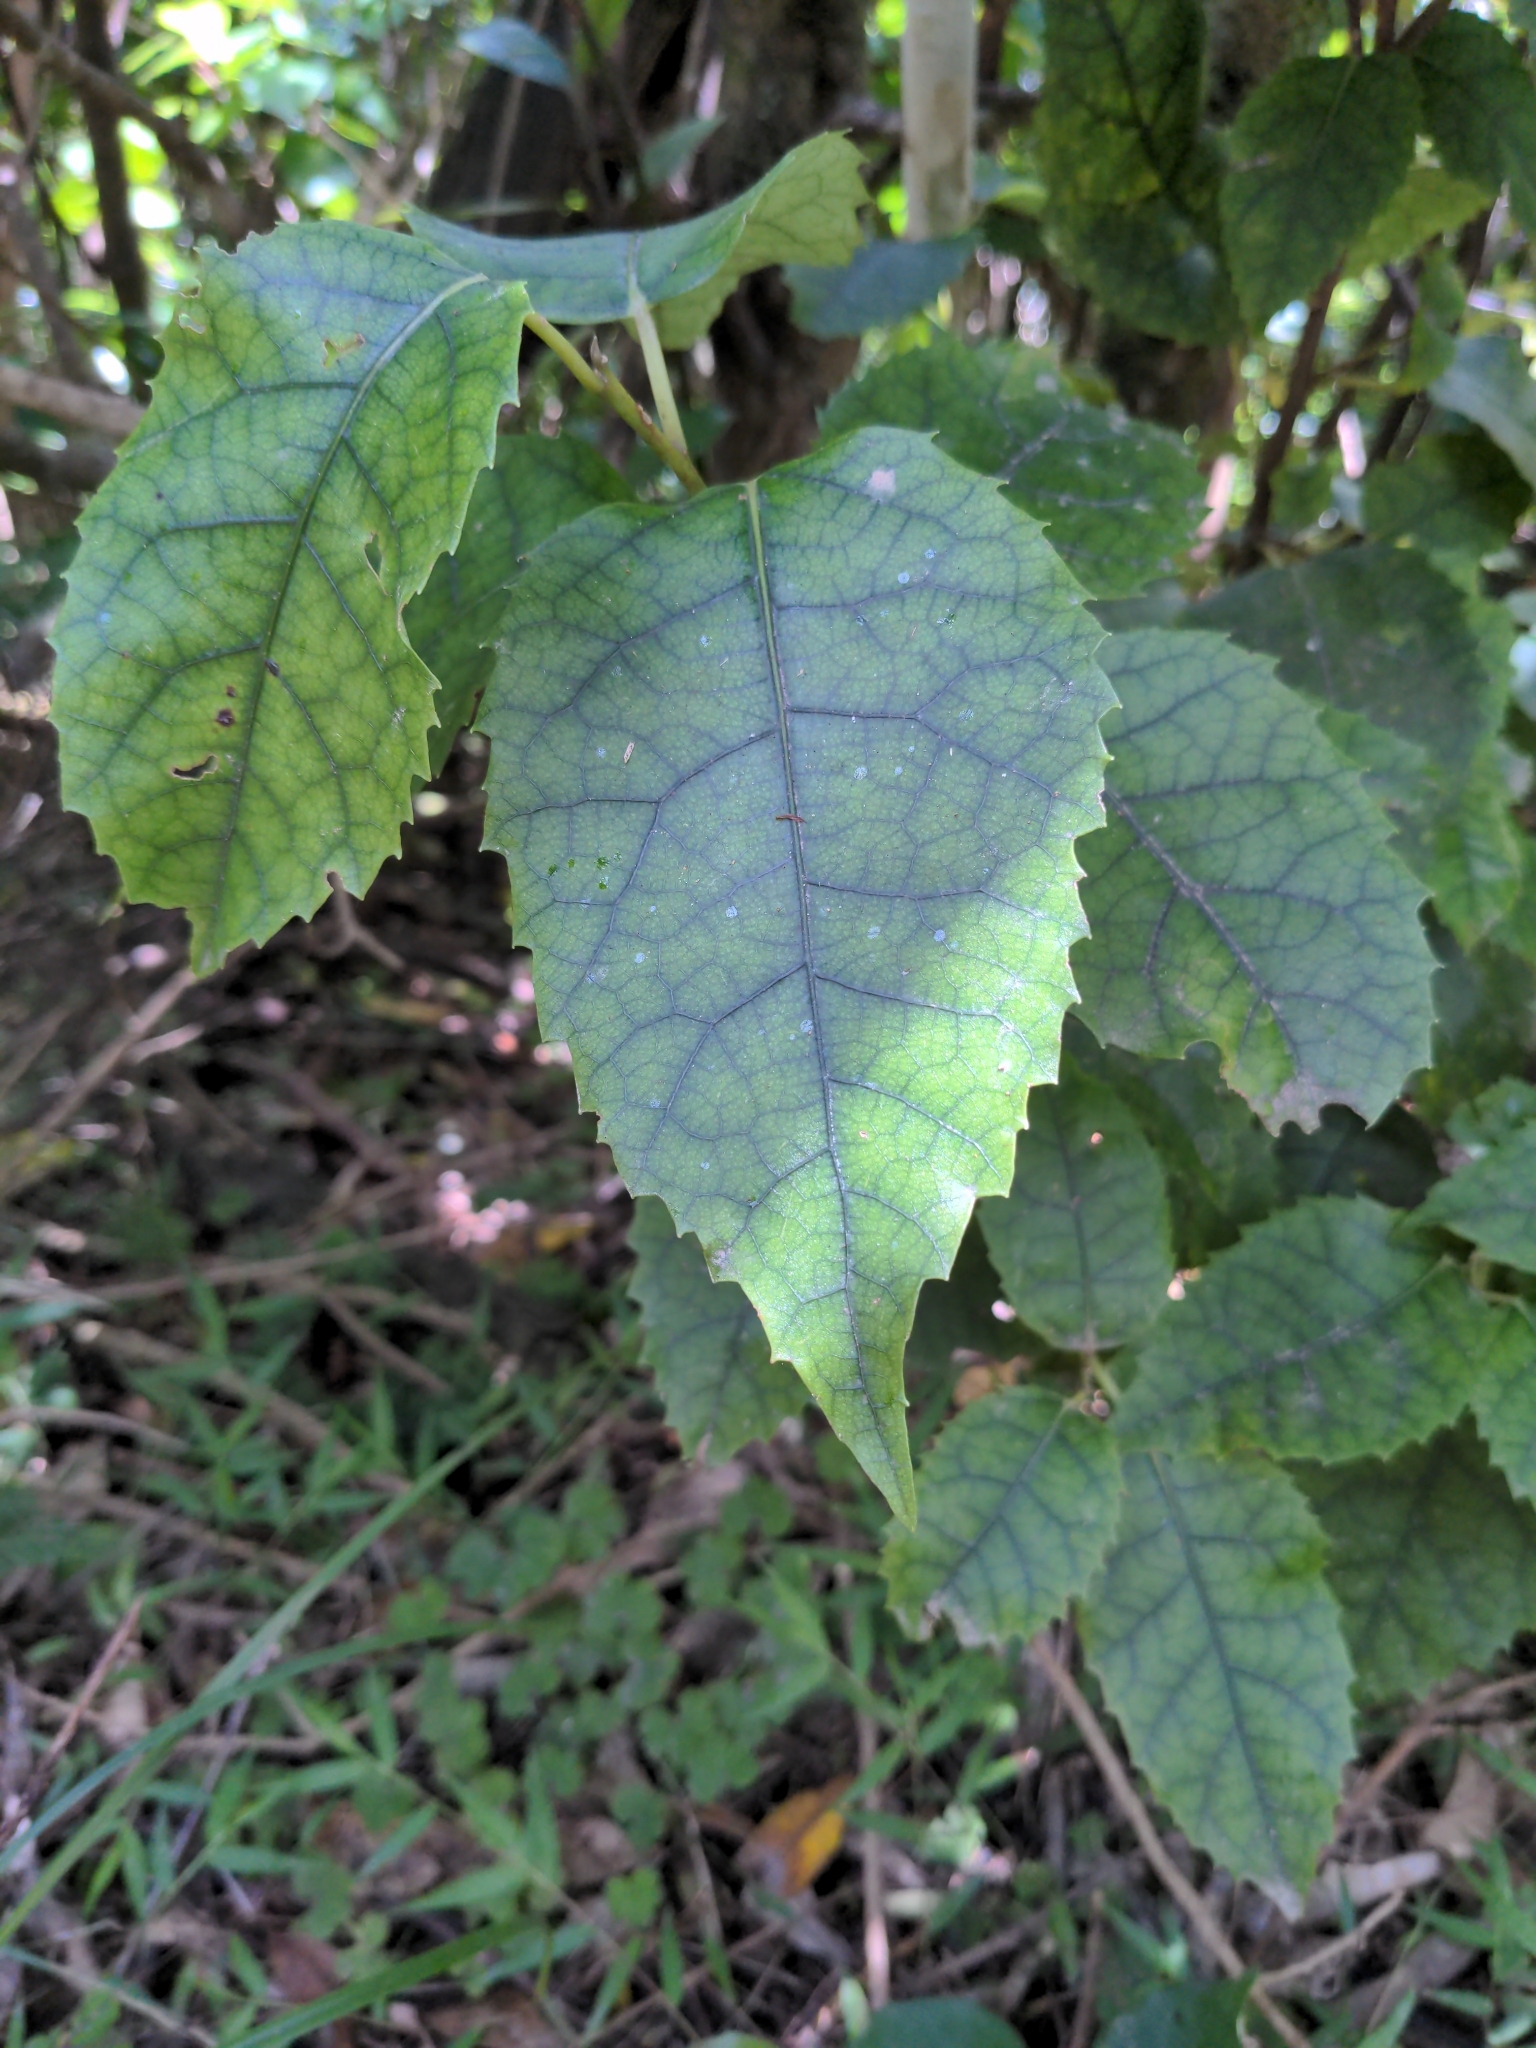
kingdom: Plantae
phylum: Tracheophyta
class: Magnoliopsida
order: Malvales
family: Malvaceae
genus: Hoheria
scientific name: Hoheria populnea
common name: Lacebark
